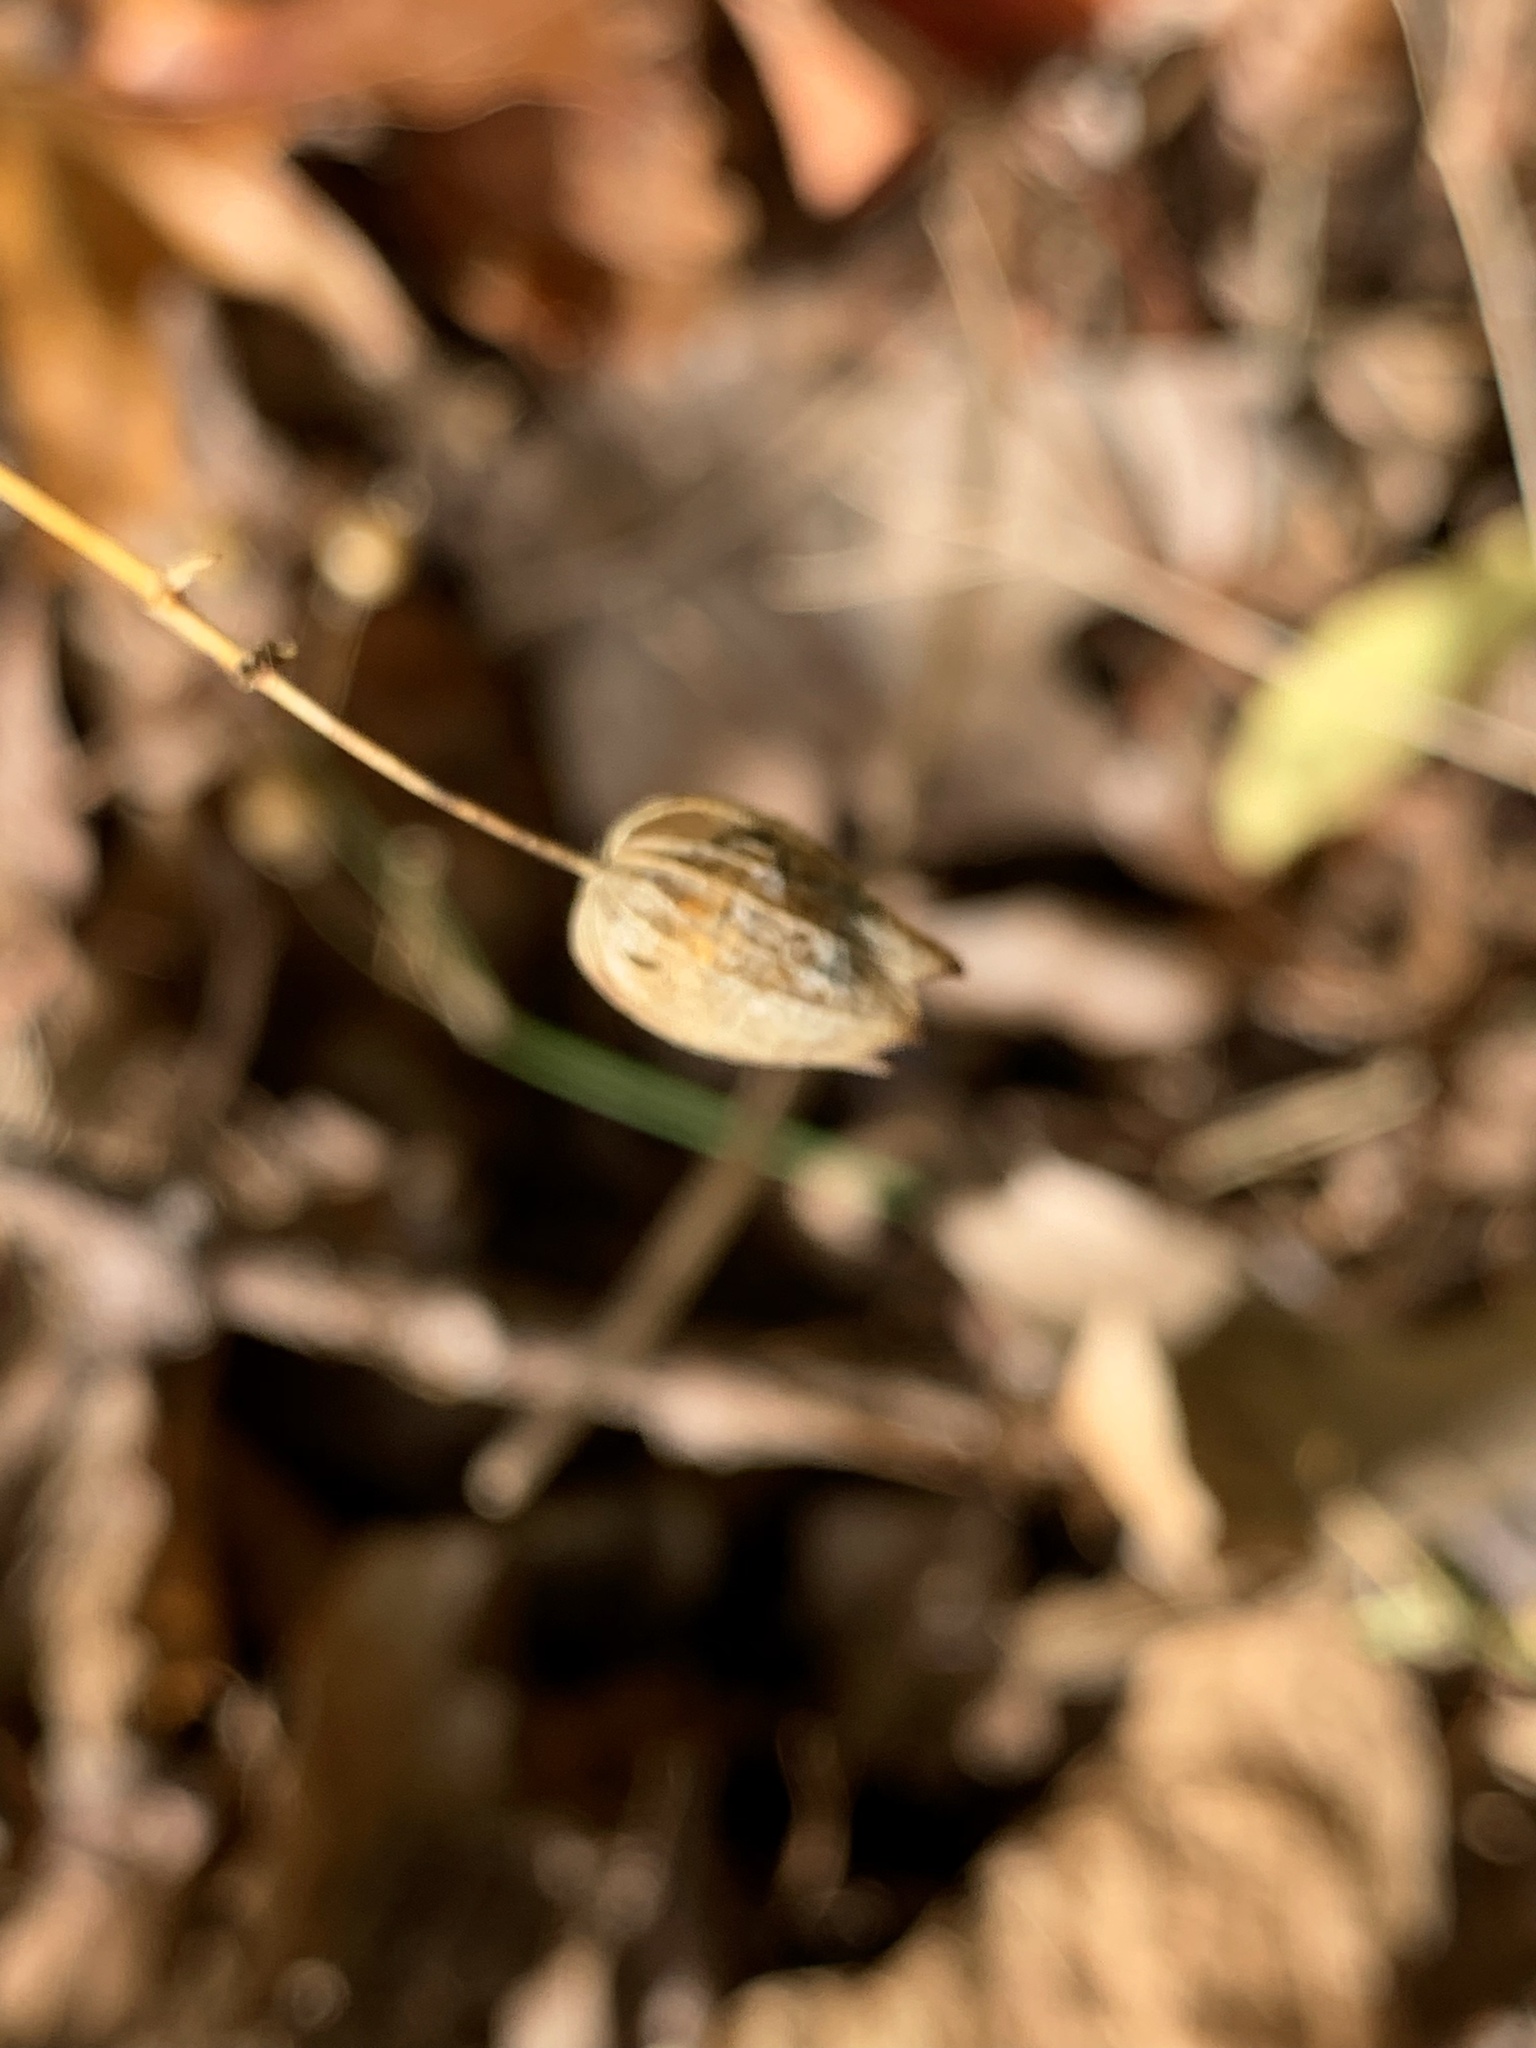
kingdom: Plantae
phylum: Tracheophyta
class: Magnoliopsida
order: Caryophyllales
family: Caryophyllaceae
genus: Silene
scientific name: Silene vulgaris
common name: Bladder campion
